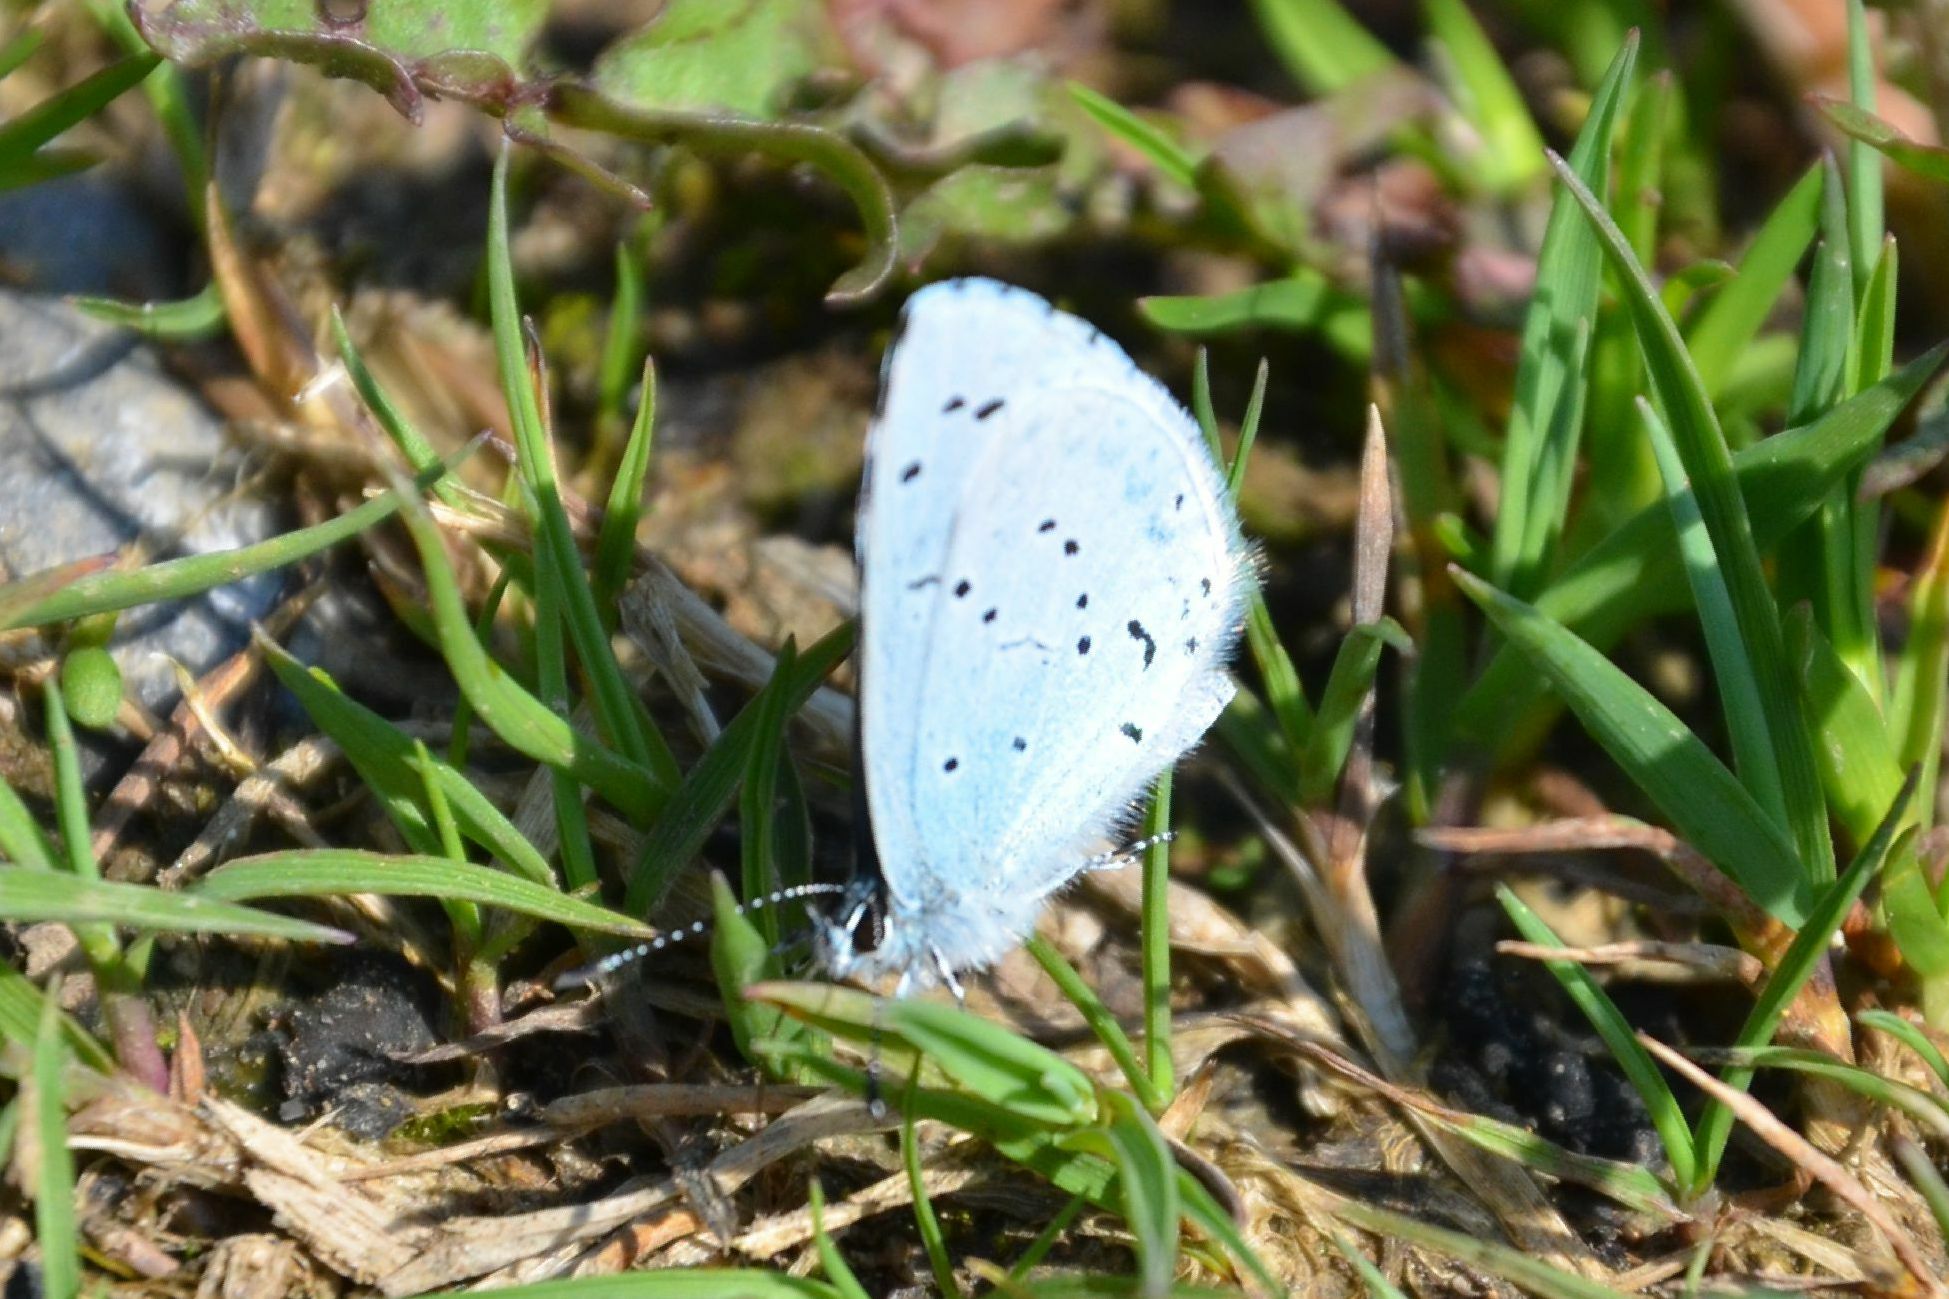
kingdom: Animalia
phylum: Arthropoda
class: Insecta
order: Lepidoptera
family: Lycaenidae
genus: Celastrina
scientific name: Celastrina argiolus
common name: Holly blue
